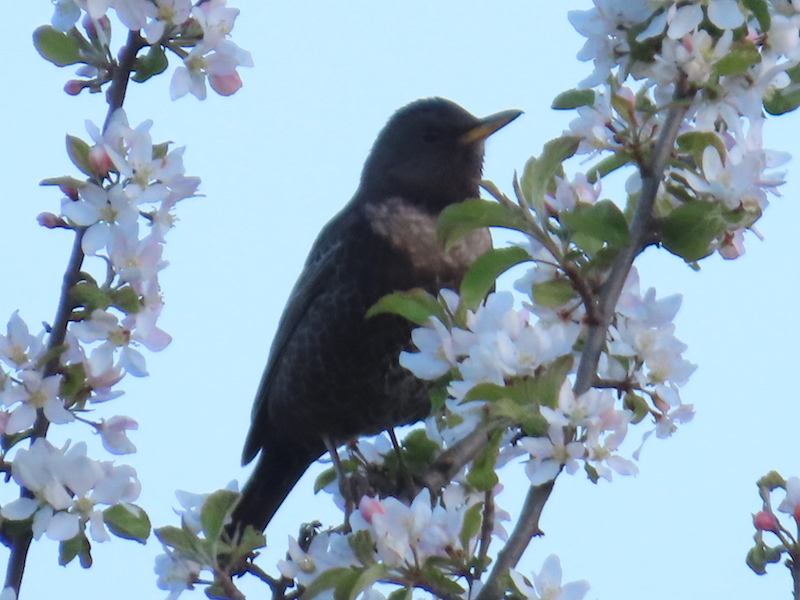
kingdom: Animalia
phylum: Chordata
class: Aves
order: Passeriformes
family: Turdidae
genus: Turdus
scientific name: Turdus torquatus
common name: Ring ouzel
